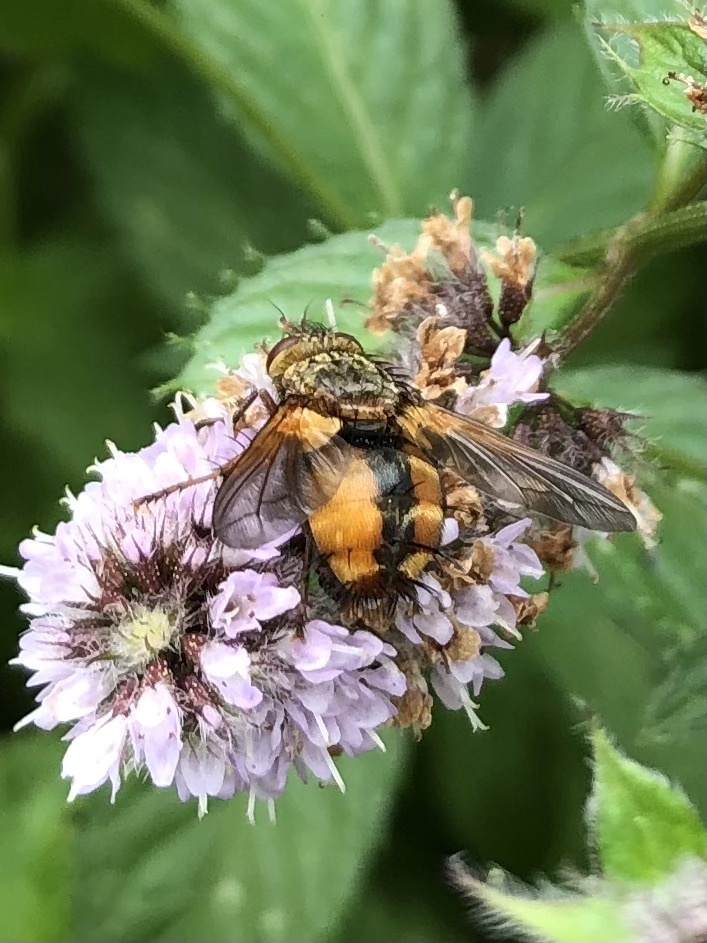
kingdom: Animalia
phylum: Arthropoda
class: Insecta
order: Diptera
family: Tachinidae
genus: Tachina
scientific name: Tachina fera
